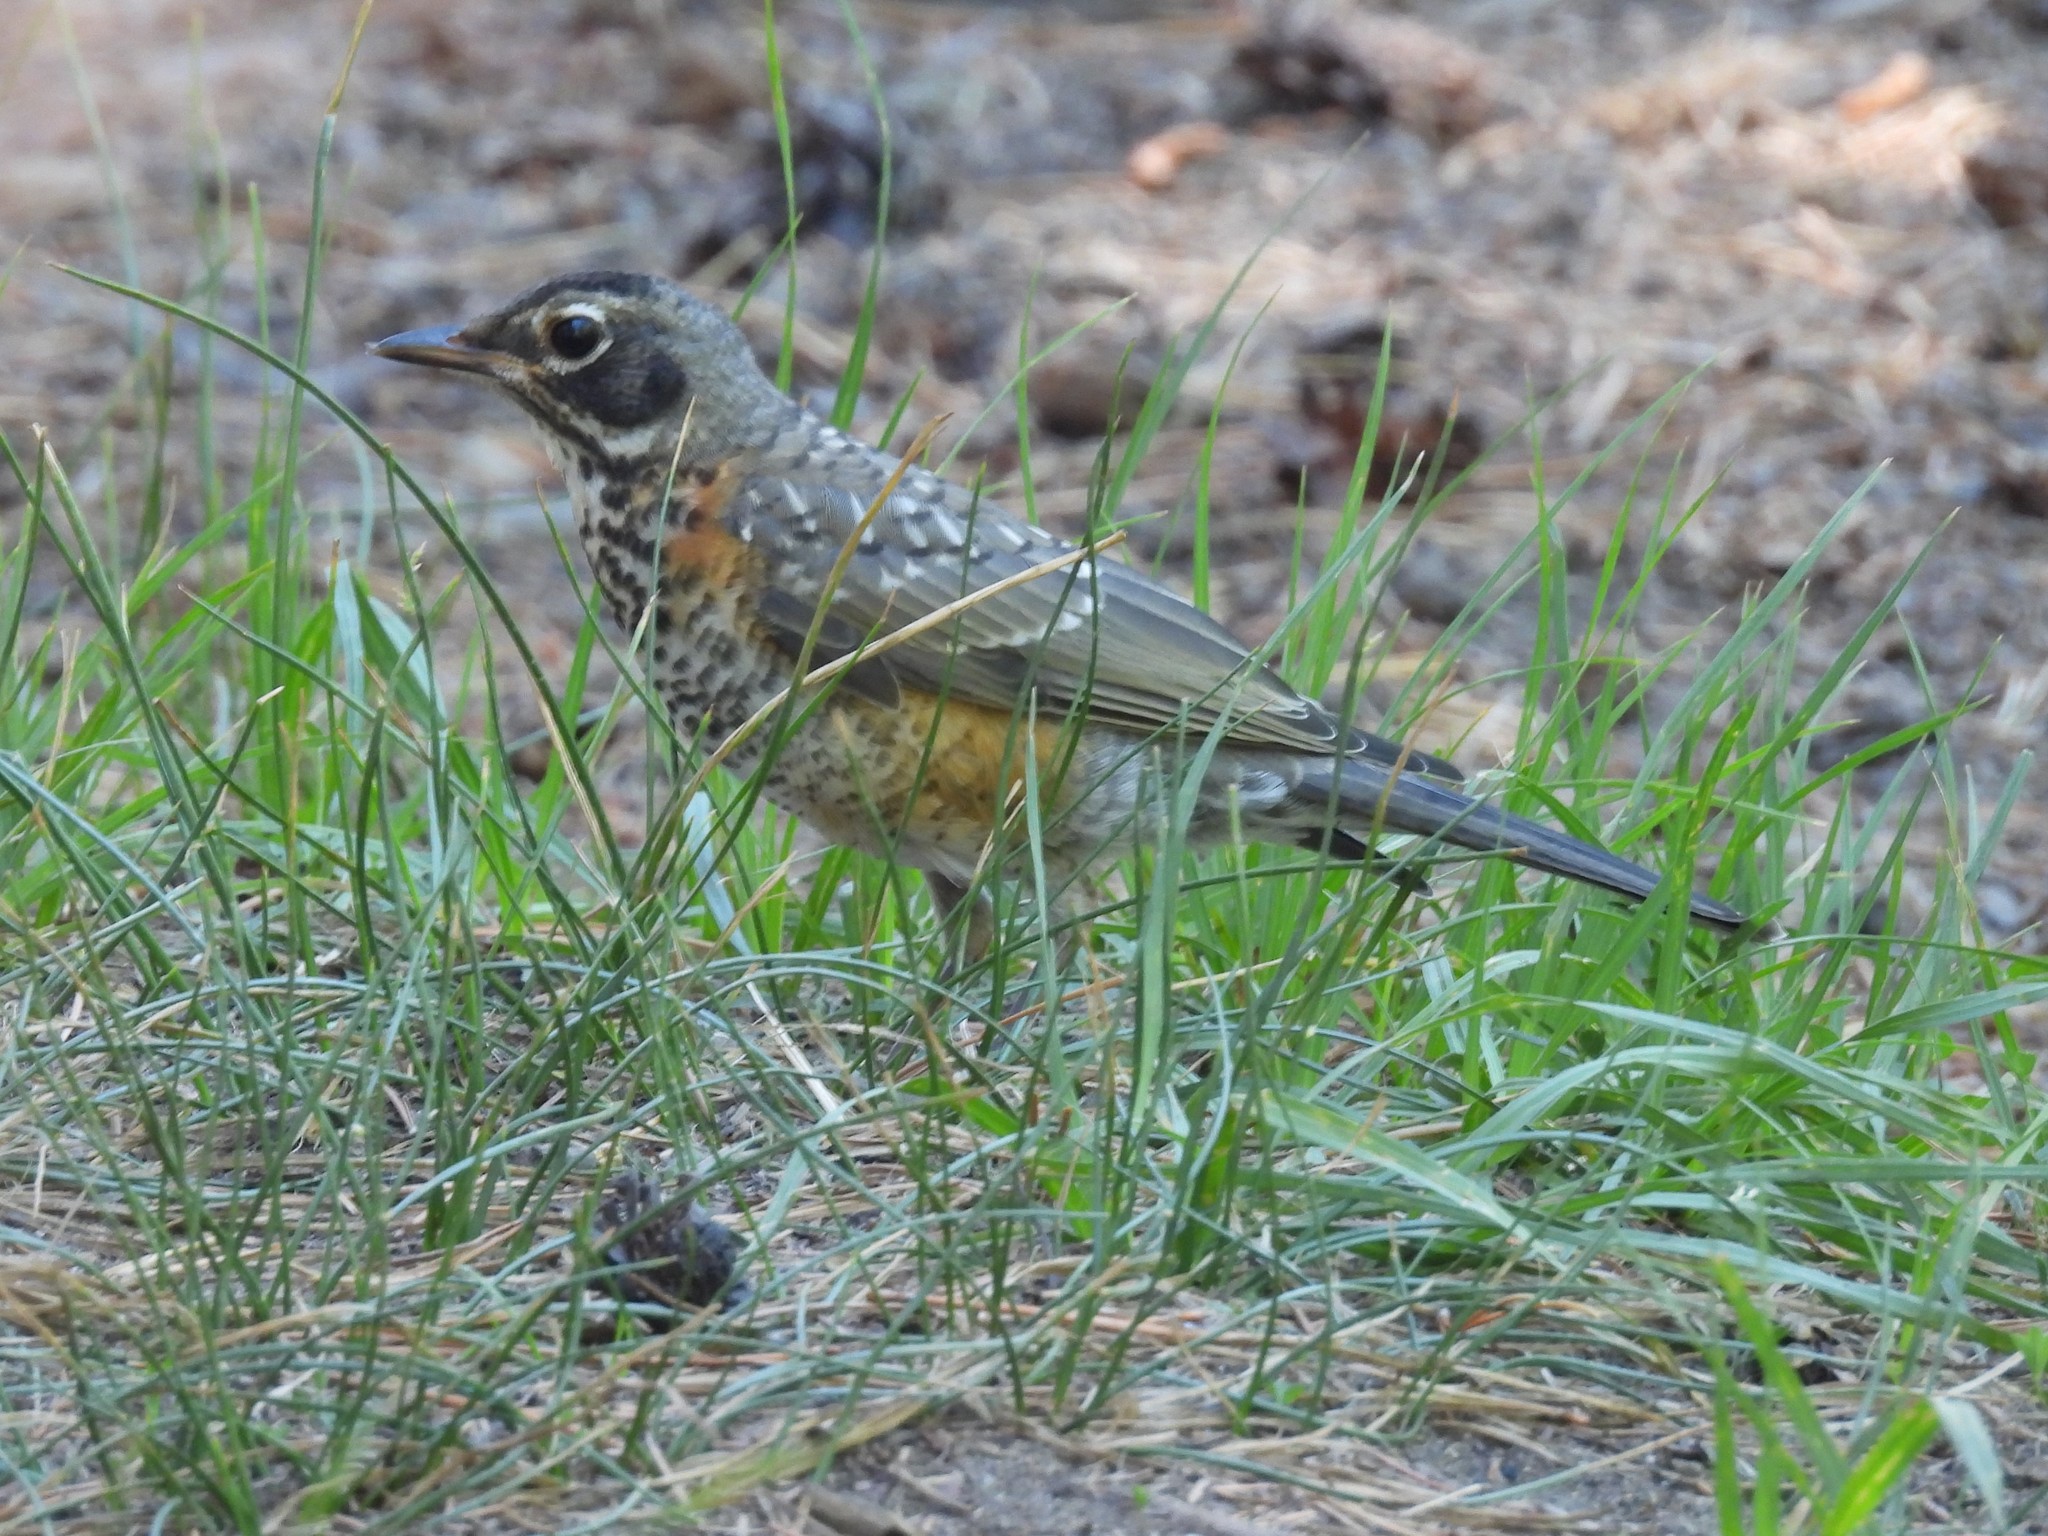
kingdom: Animalia
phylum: Chordata
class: Aves
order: Passeriformes
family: Turdidae
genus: Turdus
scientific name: Turdus migratorius
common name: American robin
